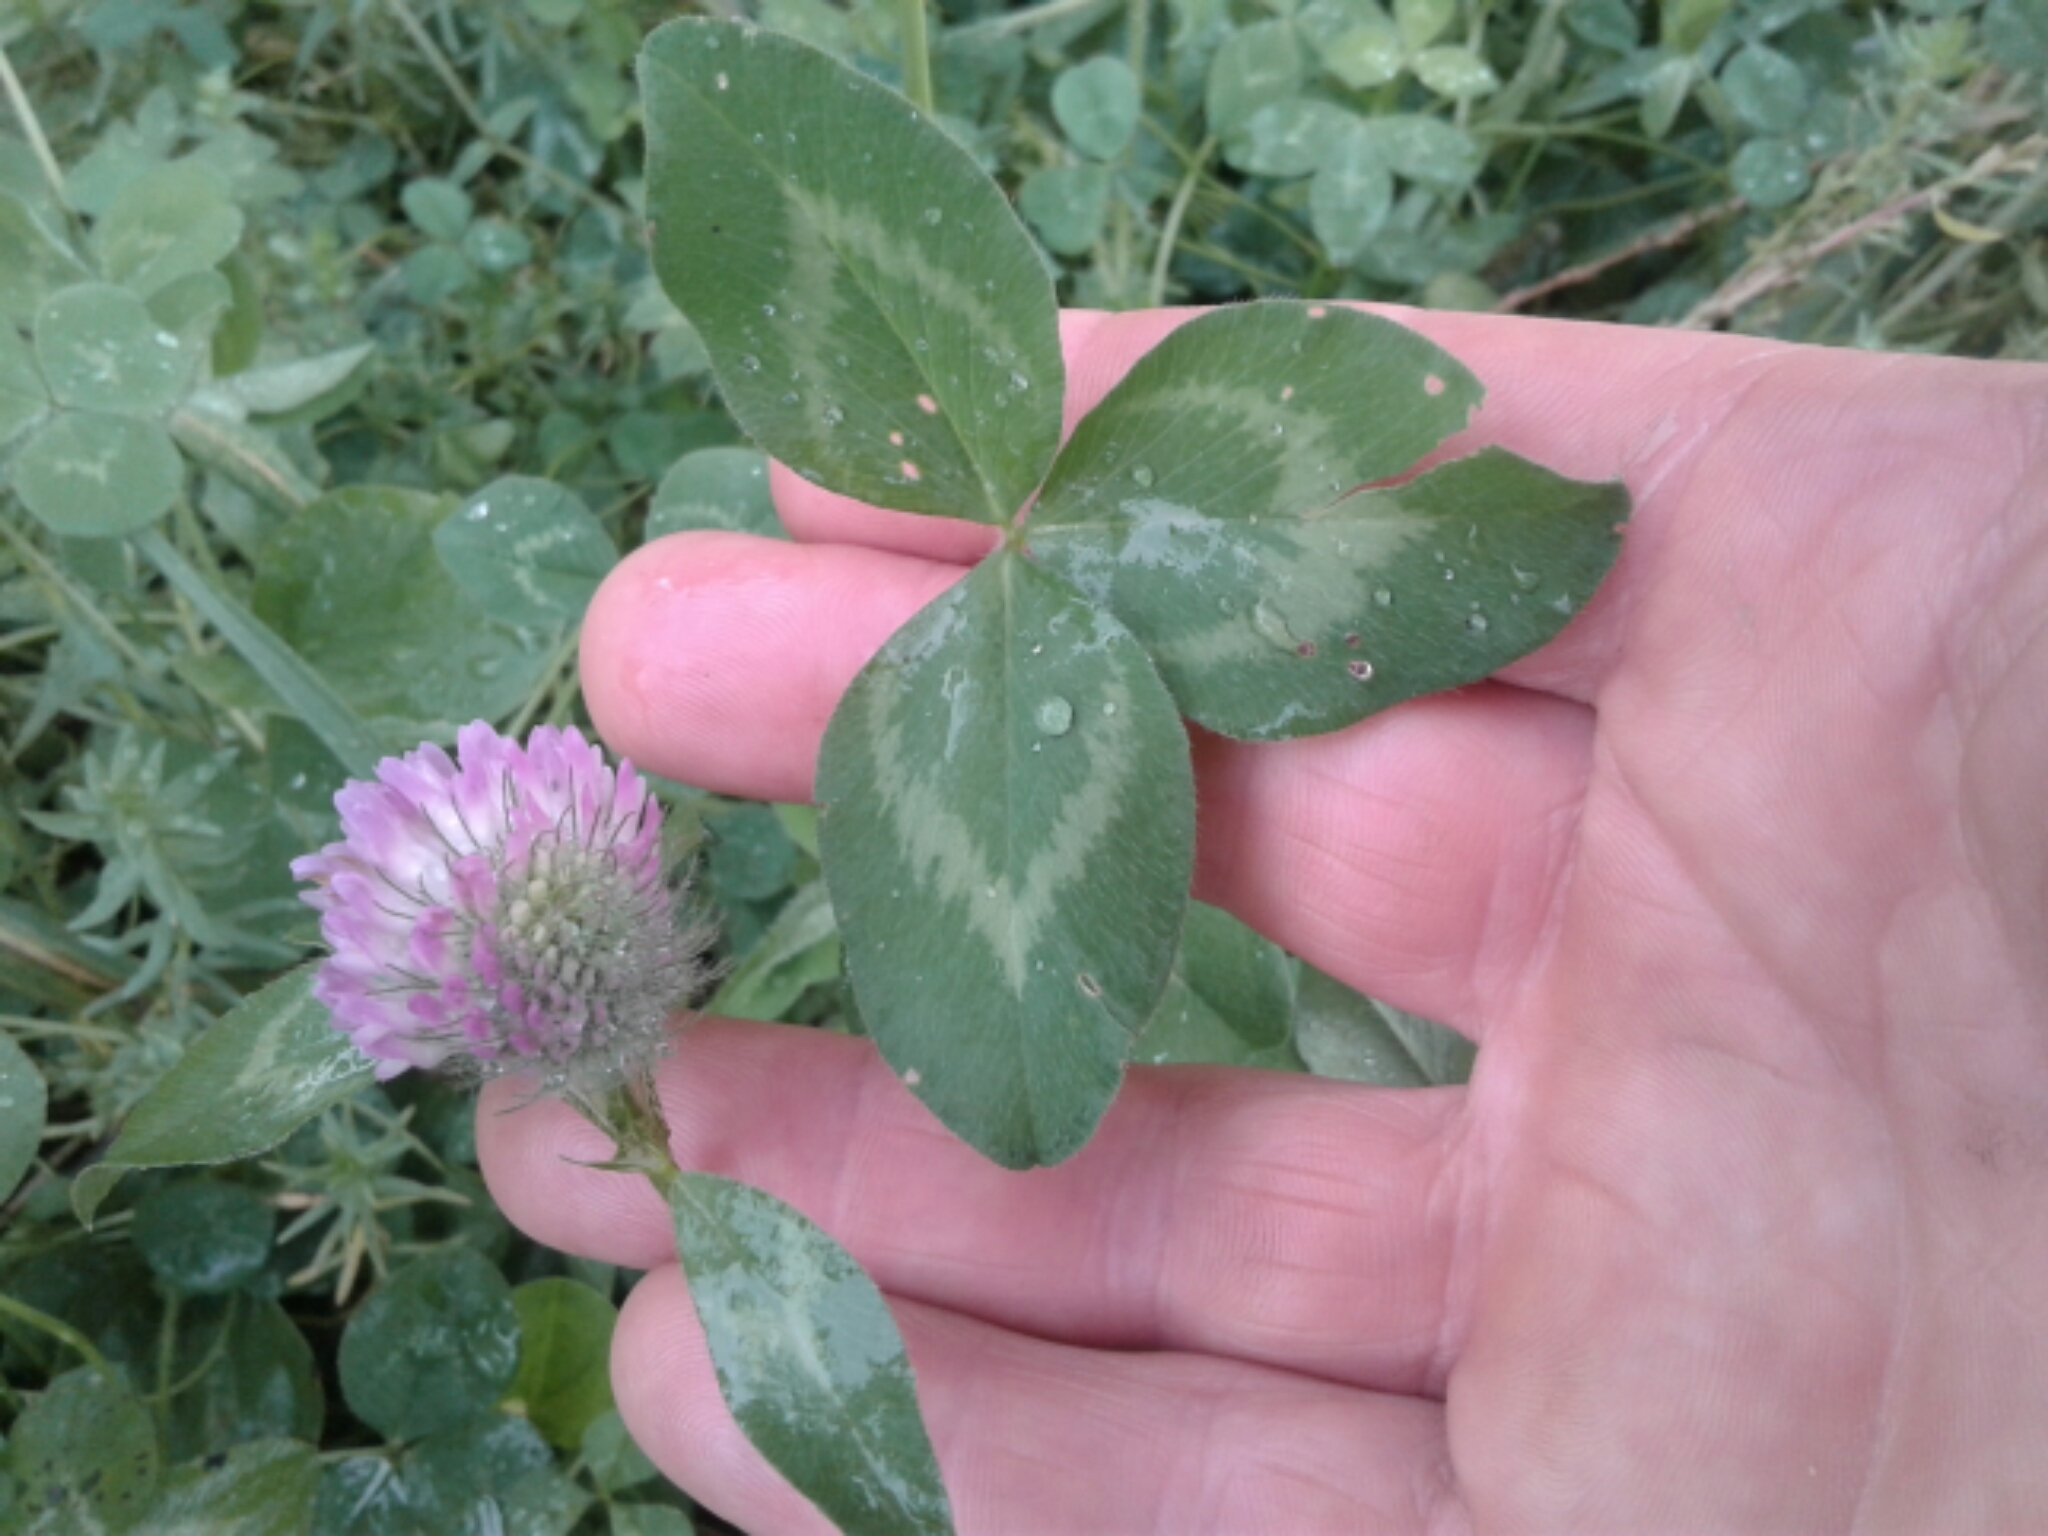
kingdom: Plantae
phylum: Tracheophyta
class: Magnoliopsida
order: Fabales
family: Fabaceae
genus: Trifolium
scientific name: Trifolium pratense
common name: Red clover
